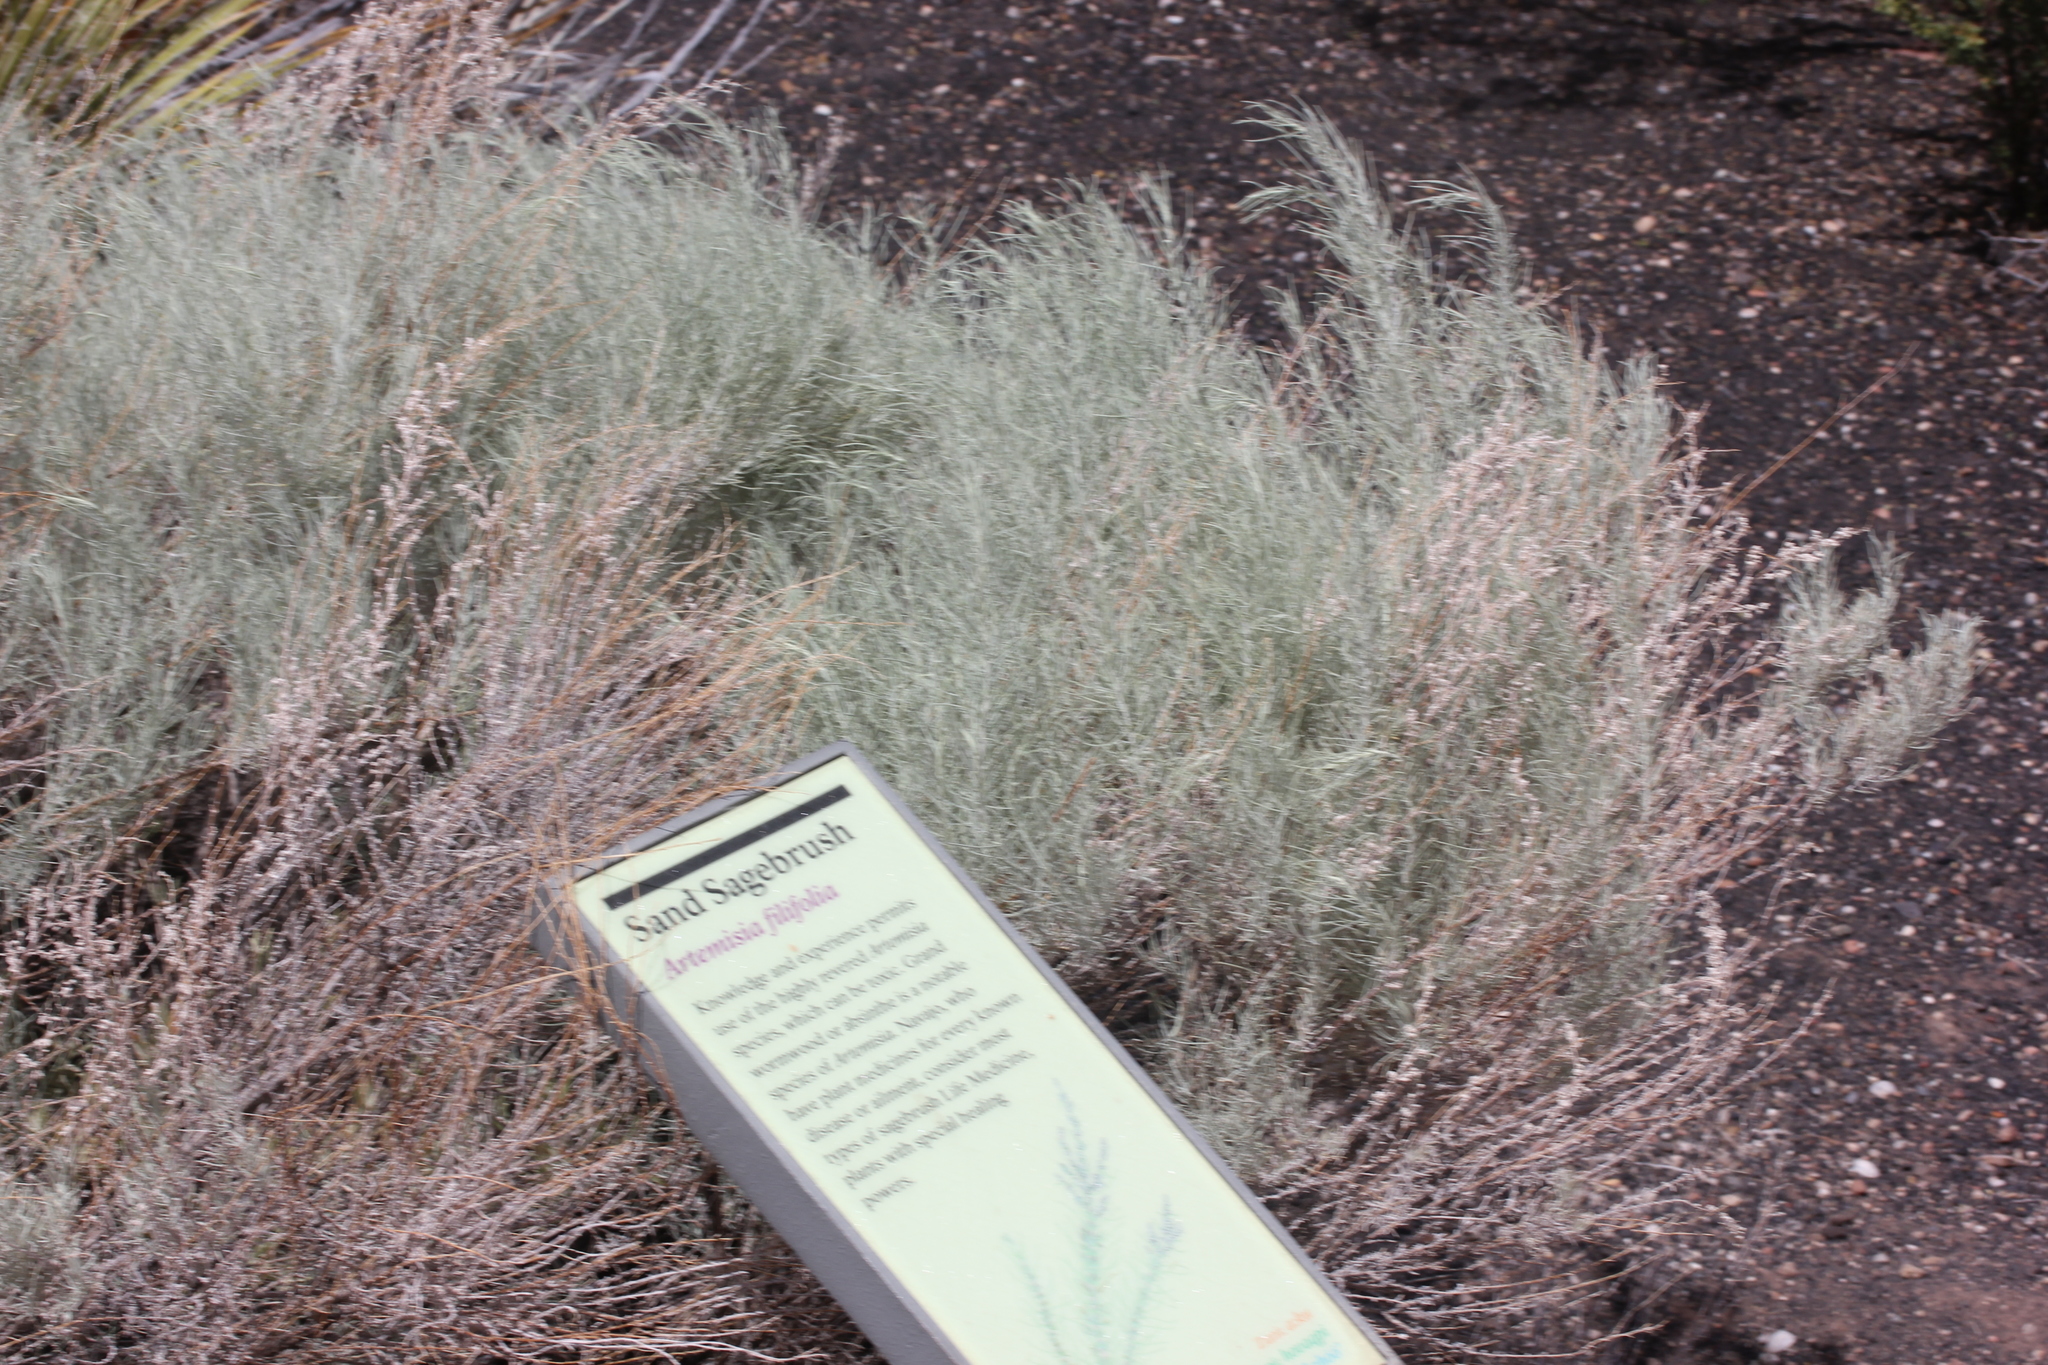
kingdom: Plantae
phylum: Tracheophyta
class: Magnoliopsida
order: Asterales
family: Asteraceae
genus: Artemisia
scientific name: Artemisia filifolia
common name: Sand-sage
